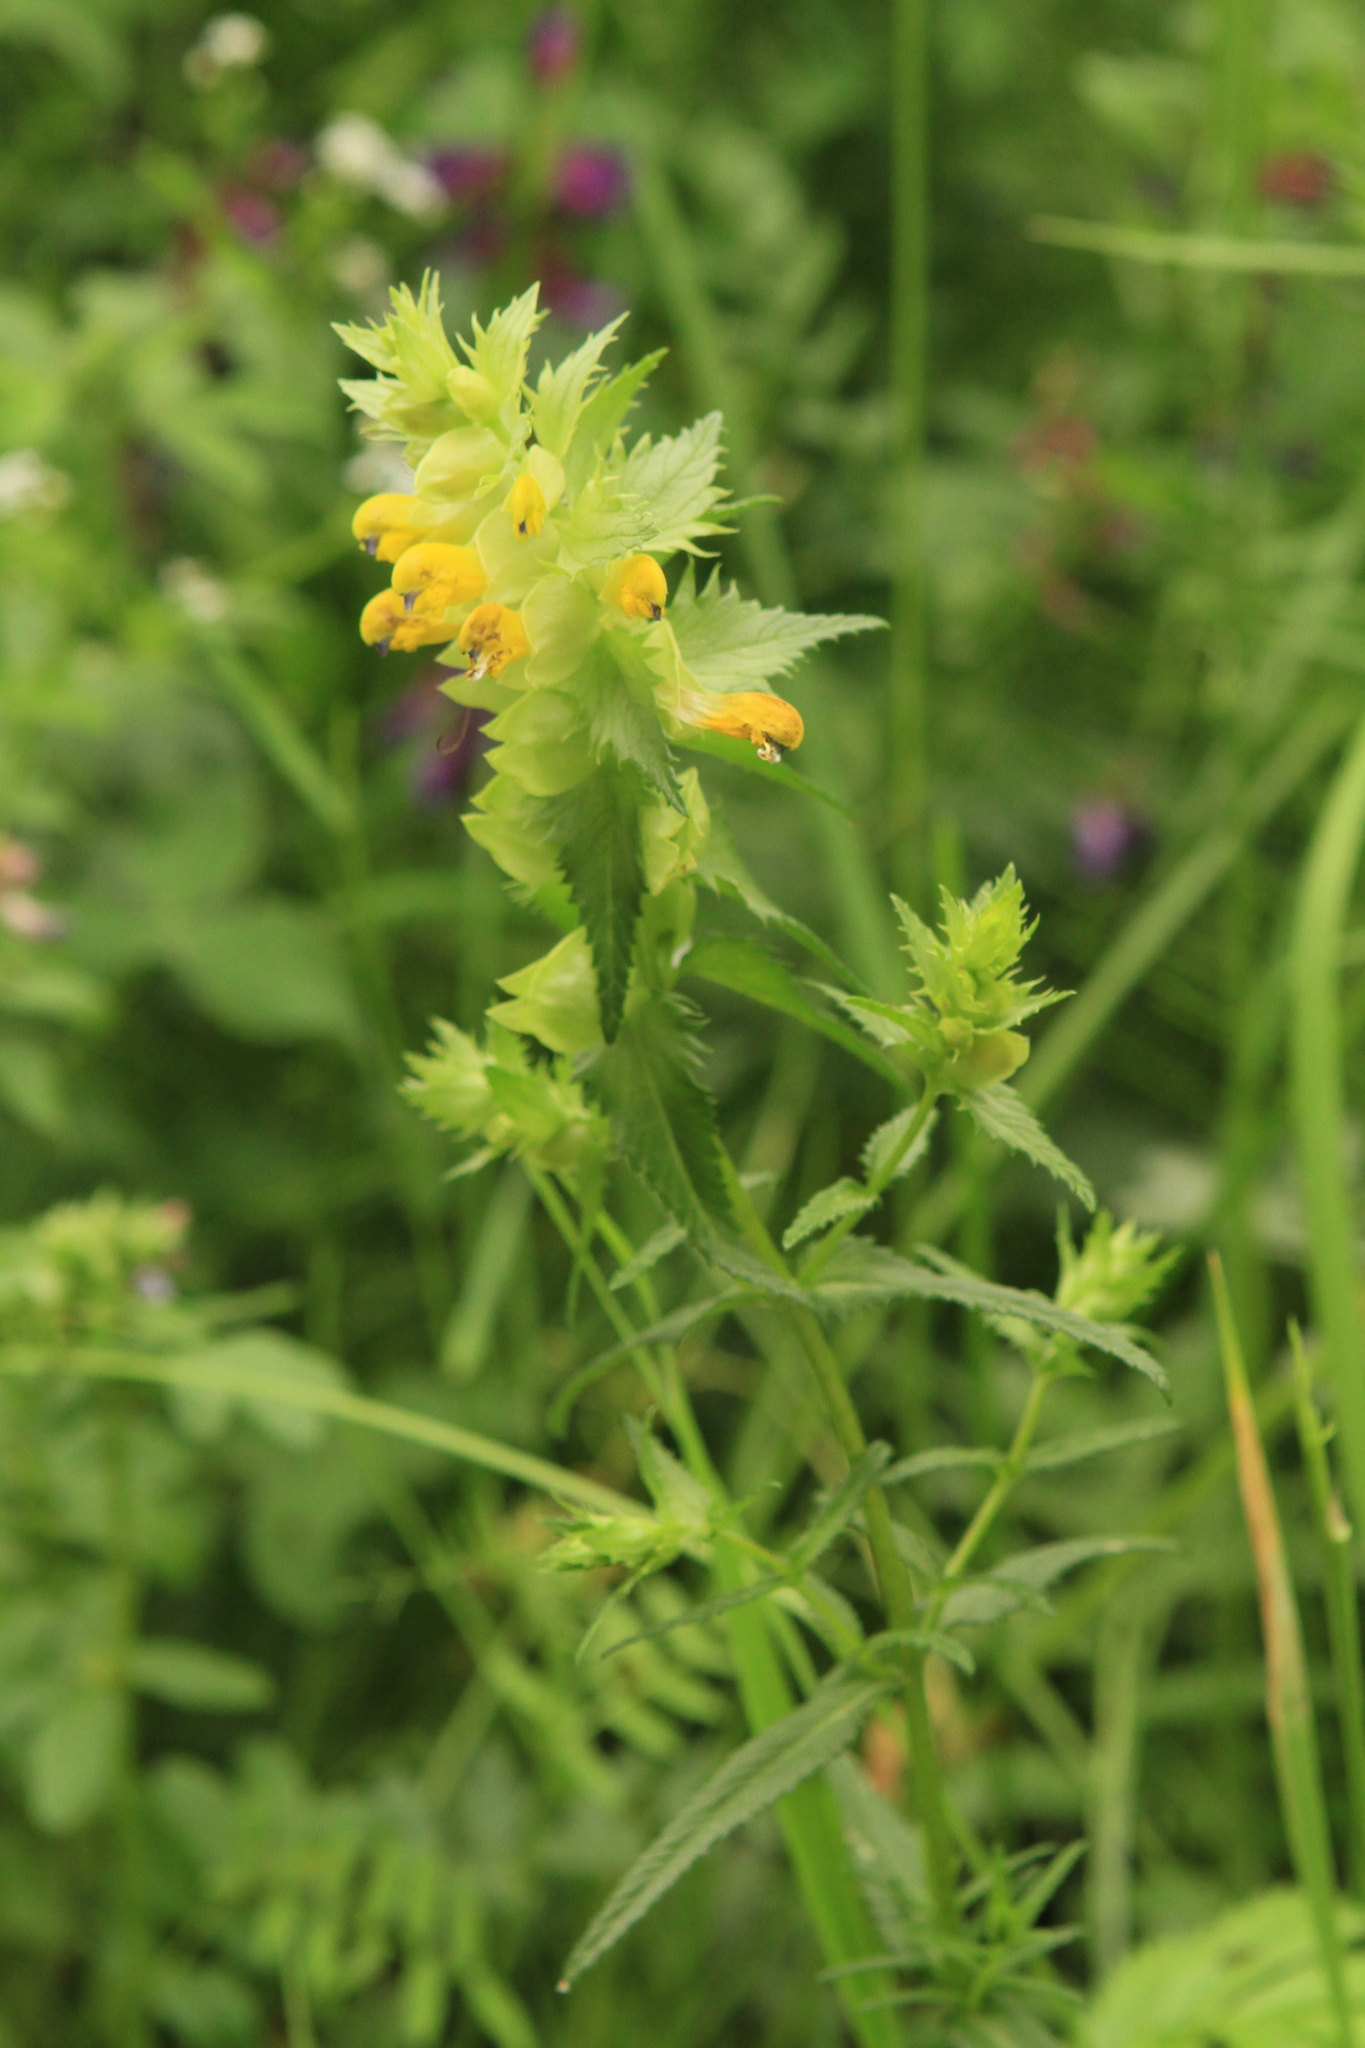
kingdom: Plantae
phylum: Tracheophyta
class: Magnoliopsida
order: Lamiales
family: Orobanchaceae
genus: Rhinanthus
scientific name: Rhinanthus serotinus
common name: Late-flowering yellow rattle
